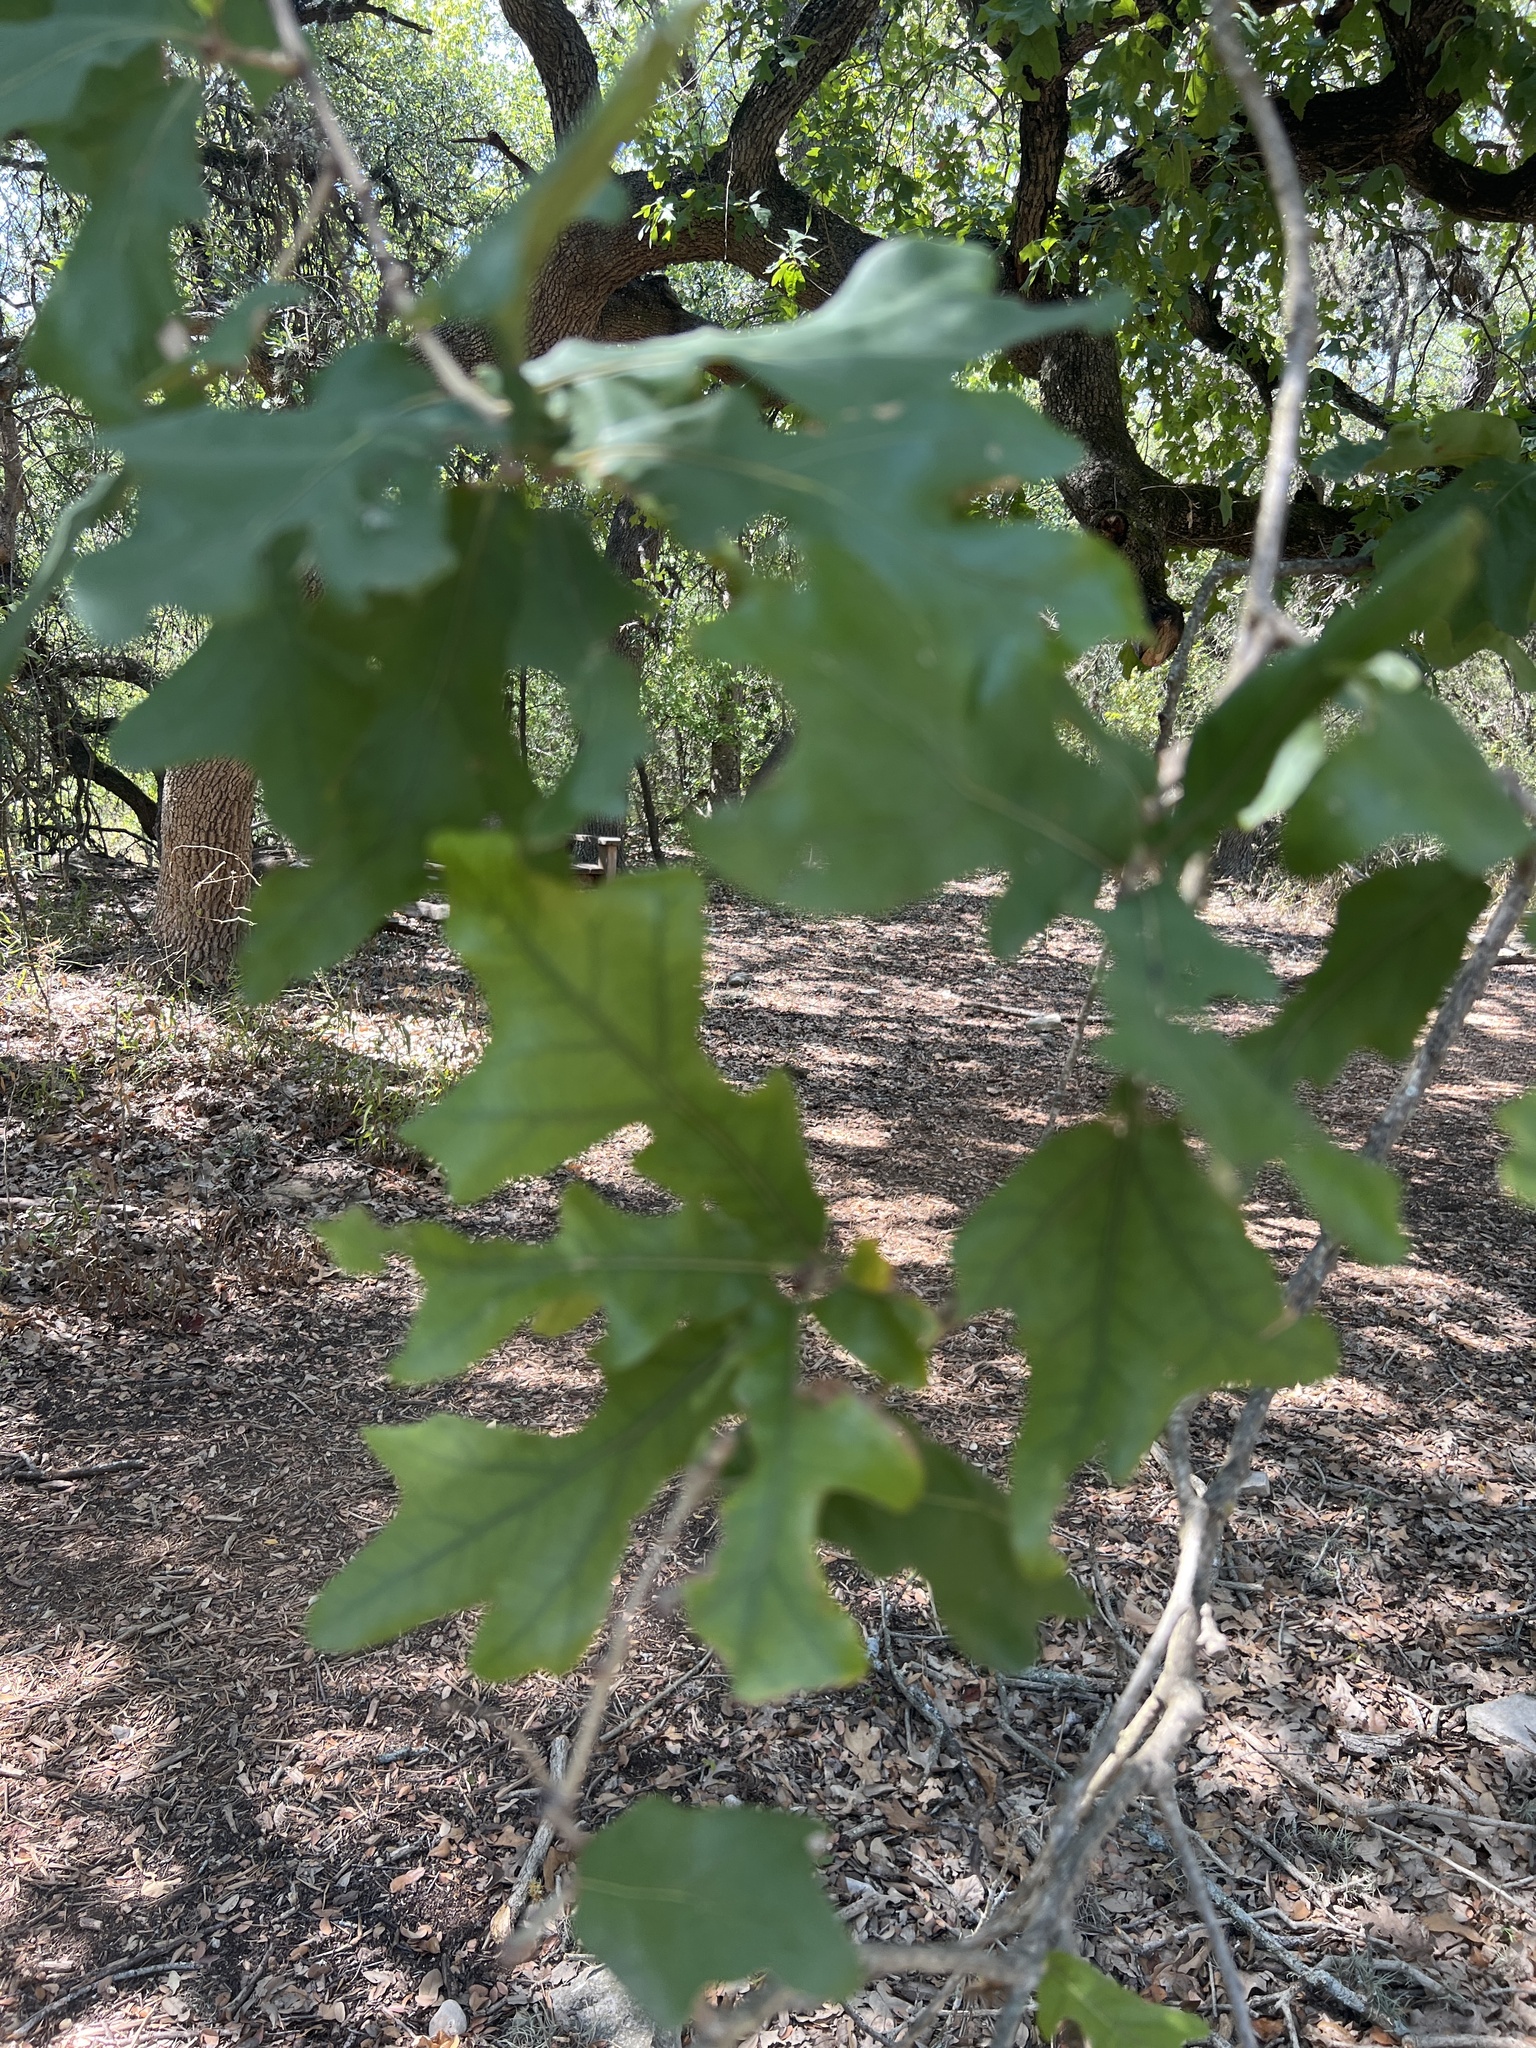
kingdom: Plantae
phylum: Tracheophyta
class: Magnoliopsida
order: Fagales
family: Fagaceae
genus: Quercus
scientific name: Quercus stellata
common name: Post oak
